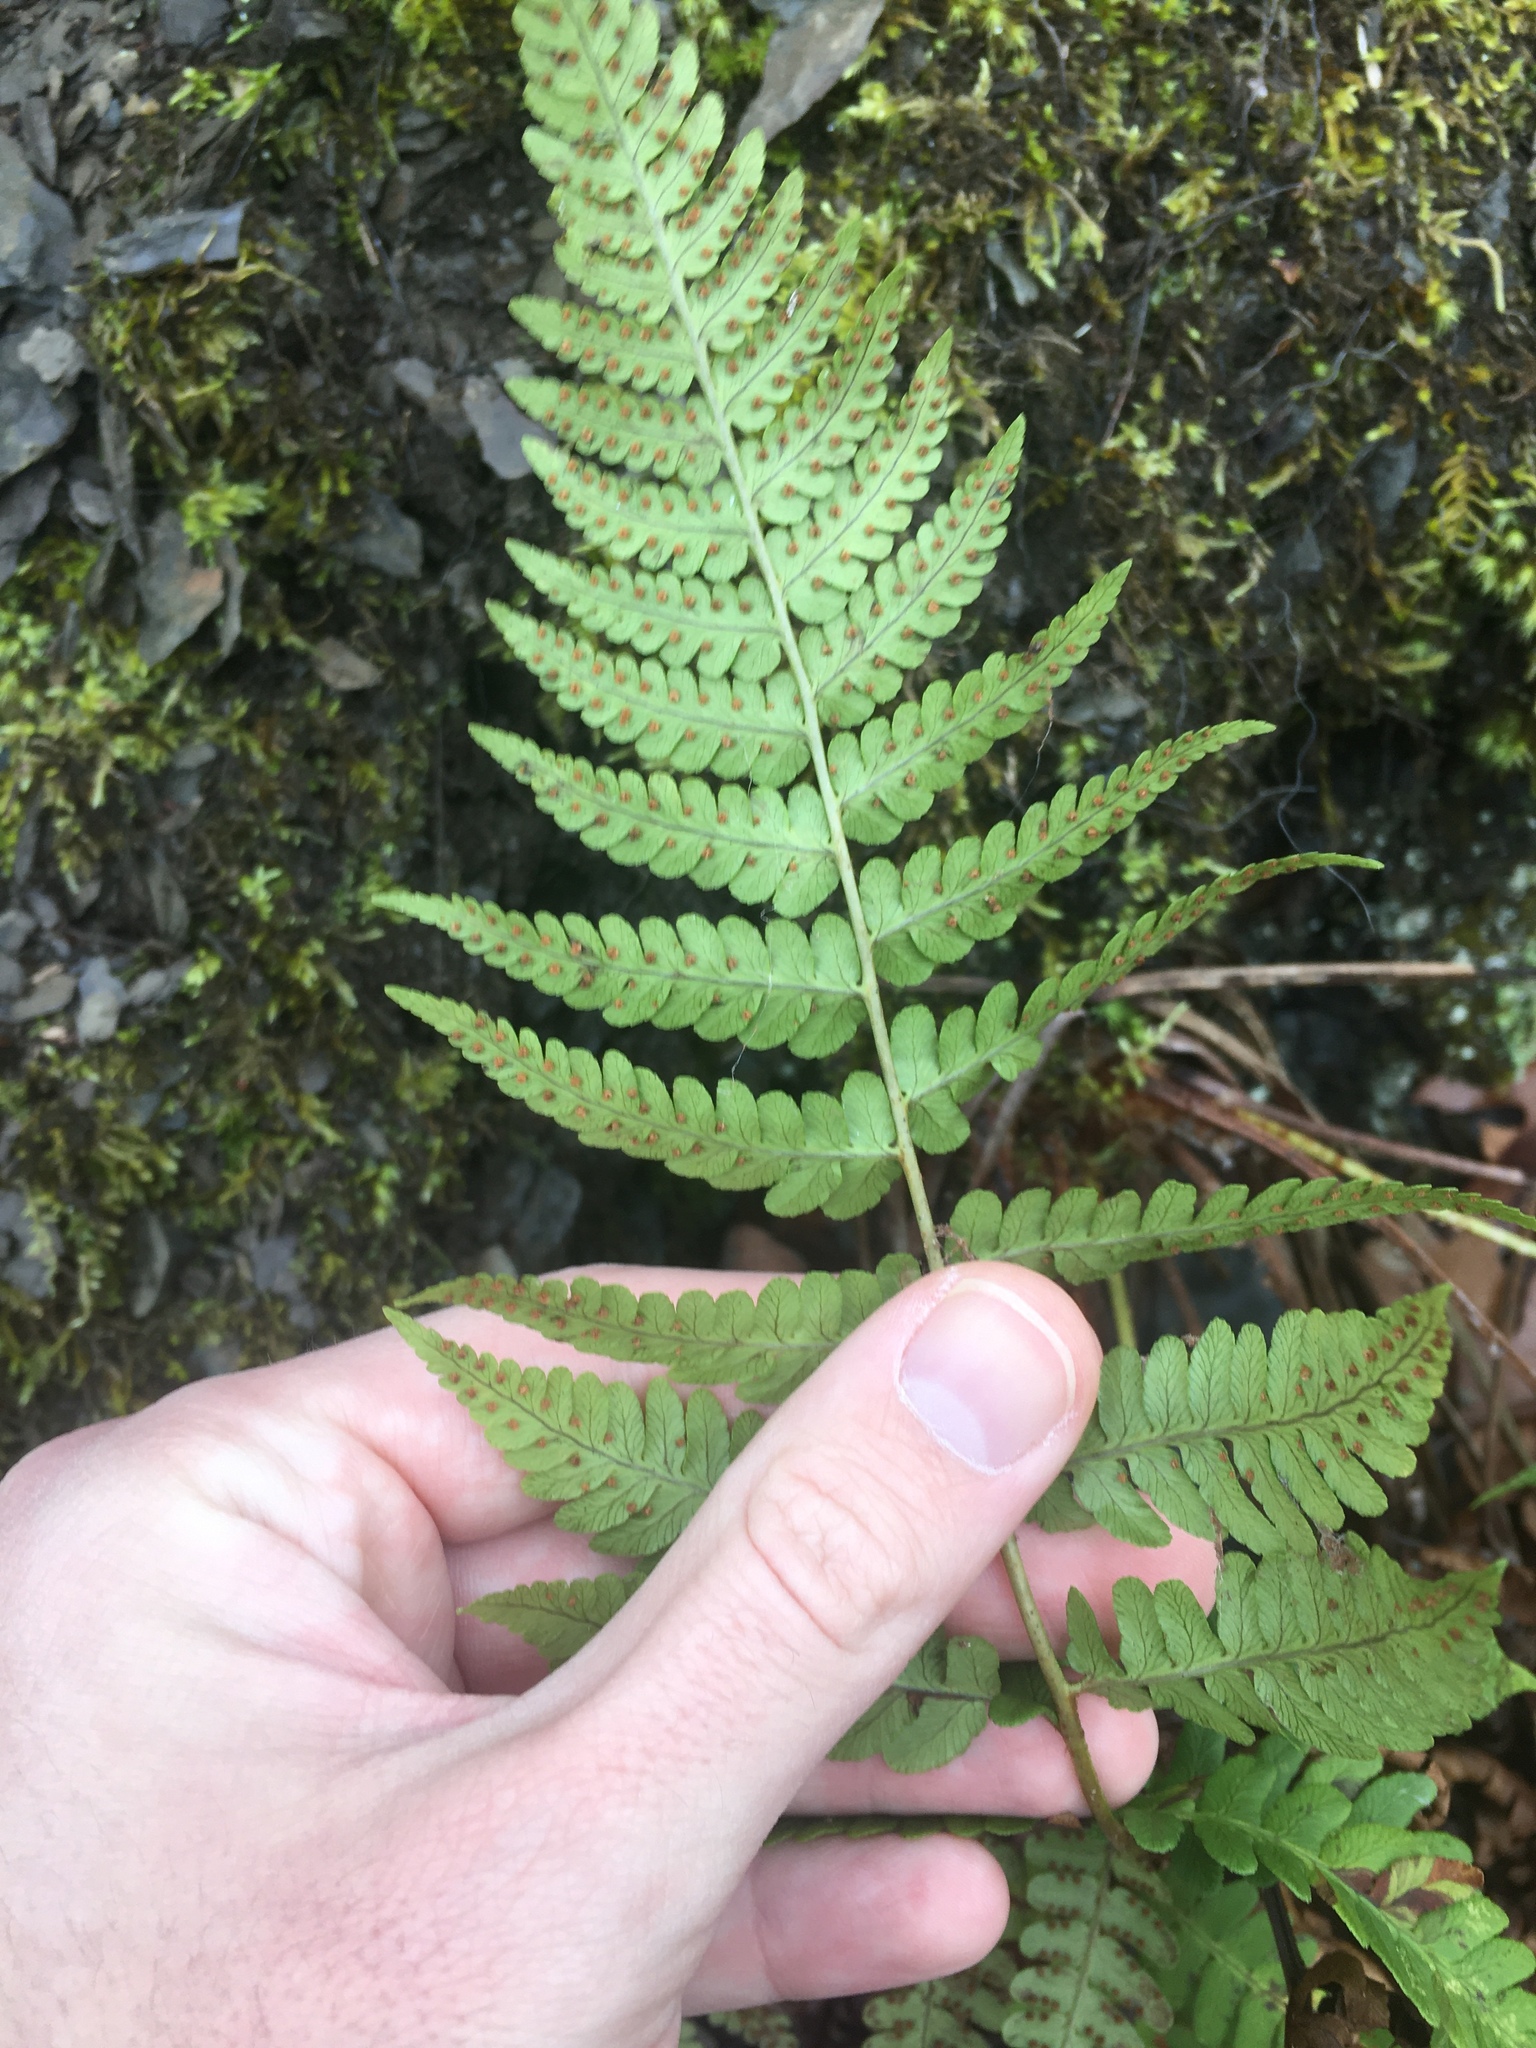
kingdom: Plantae
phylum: Tracheophyta
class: Polypodiopsida
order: Polypodiales
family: Dryopteridaceae
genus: Dryopteris
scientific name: Dryopteris marginalis
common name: Marginal wood fern
